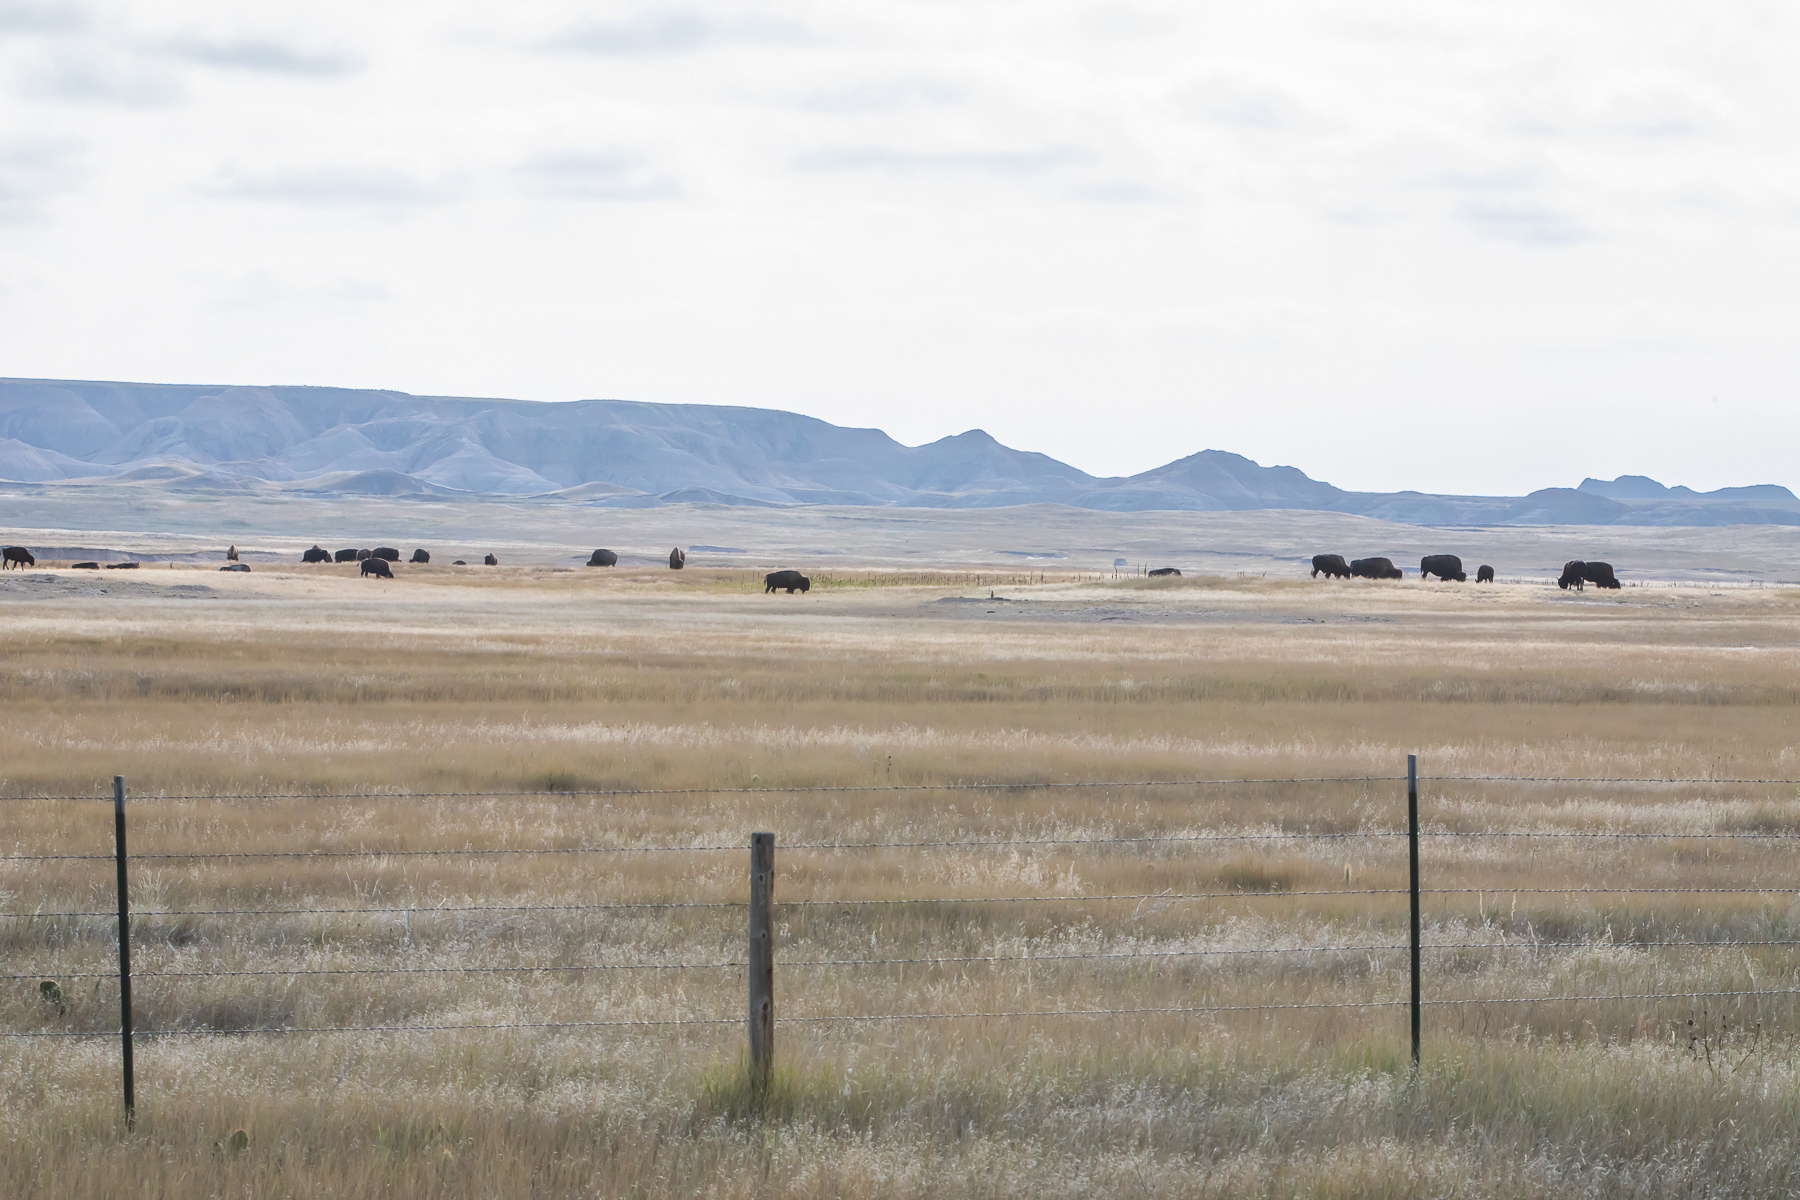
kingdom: Animalia
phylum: Chordata
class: Mammalia
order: Artiodactyla
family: Bovidae
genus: Bison
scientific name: Bison bison
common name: American bison
